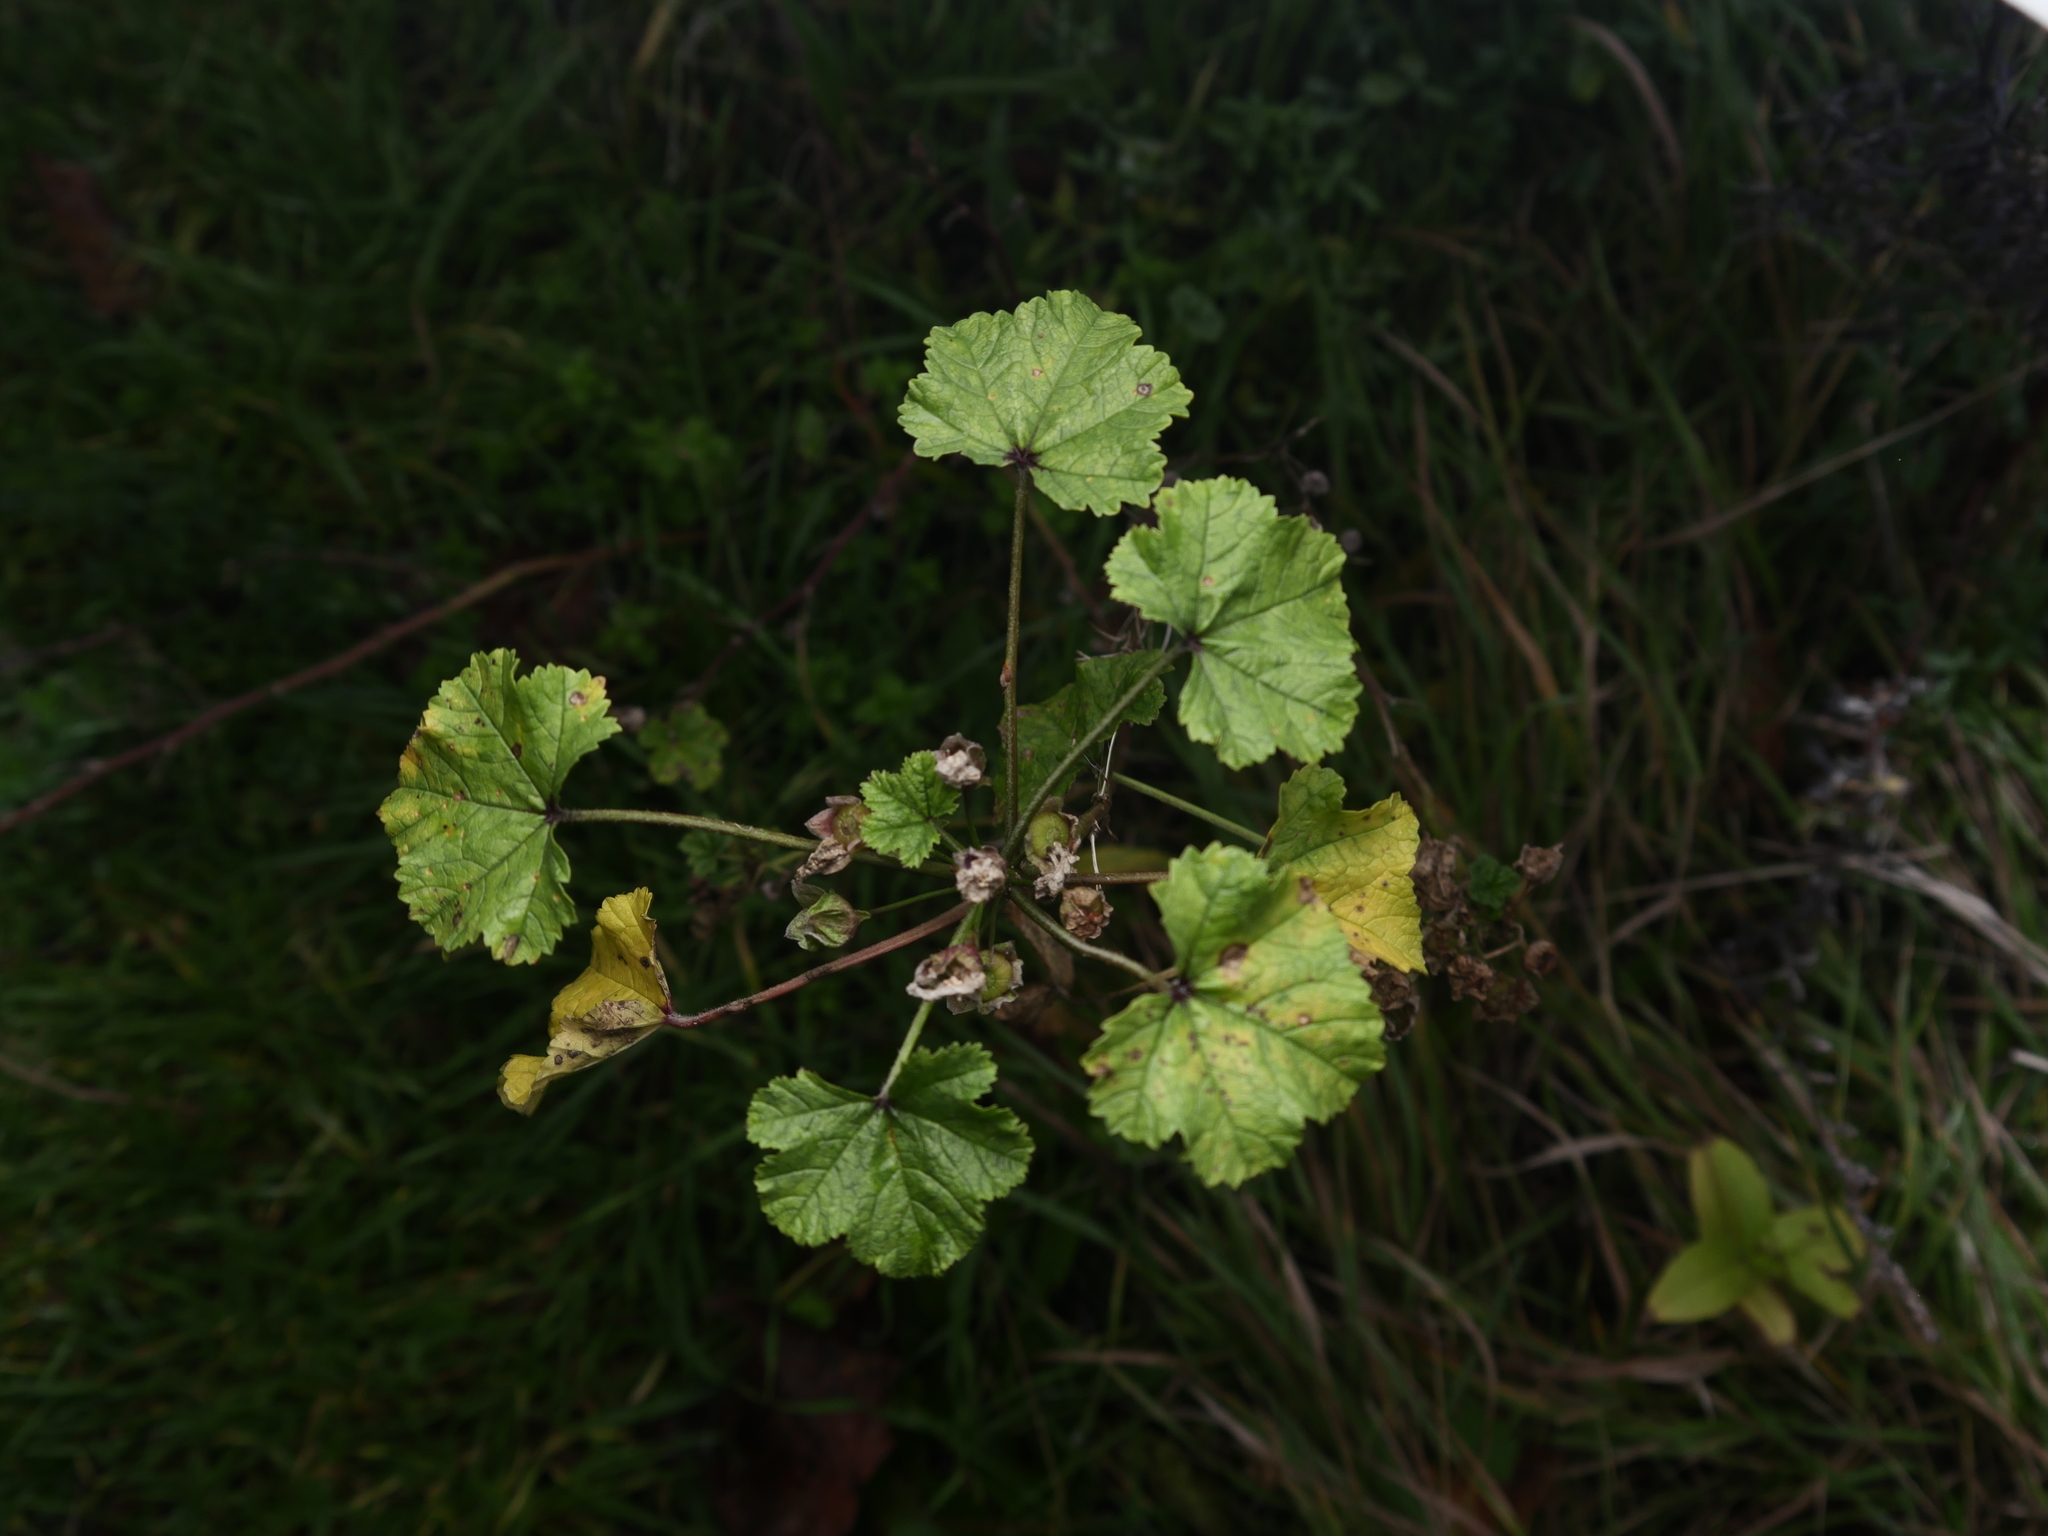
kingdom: Plantae
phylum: Tracheophyta
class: Magnoliopsida
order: Malvales
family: Malvaceae
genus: Malva
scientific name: Malva sylvestris
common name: Common mallow
